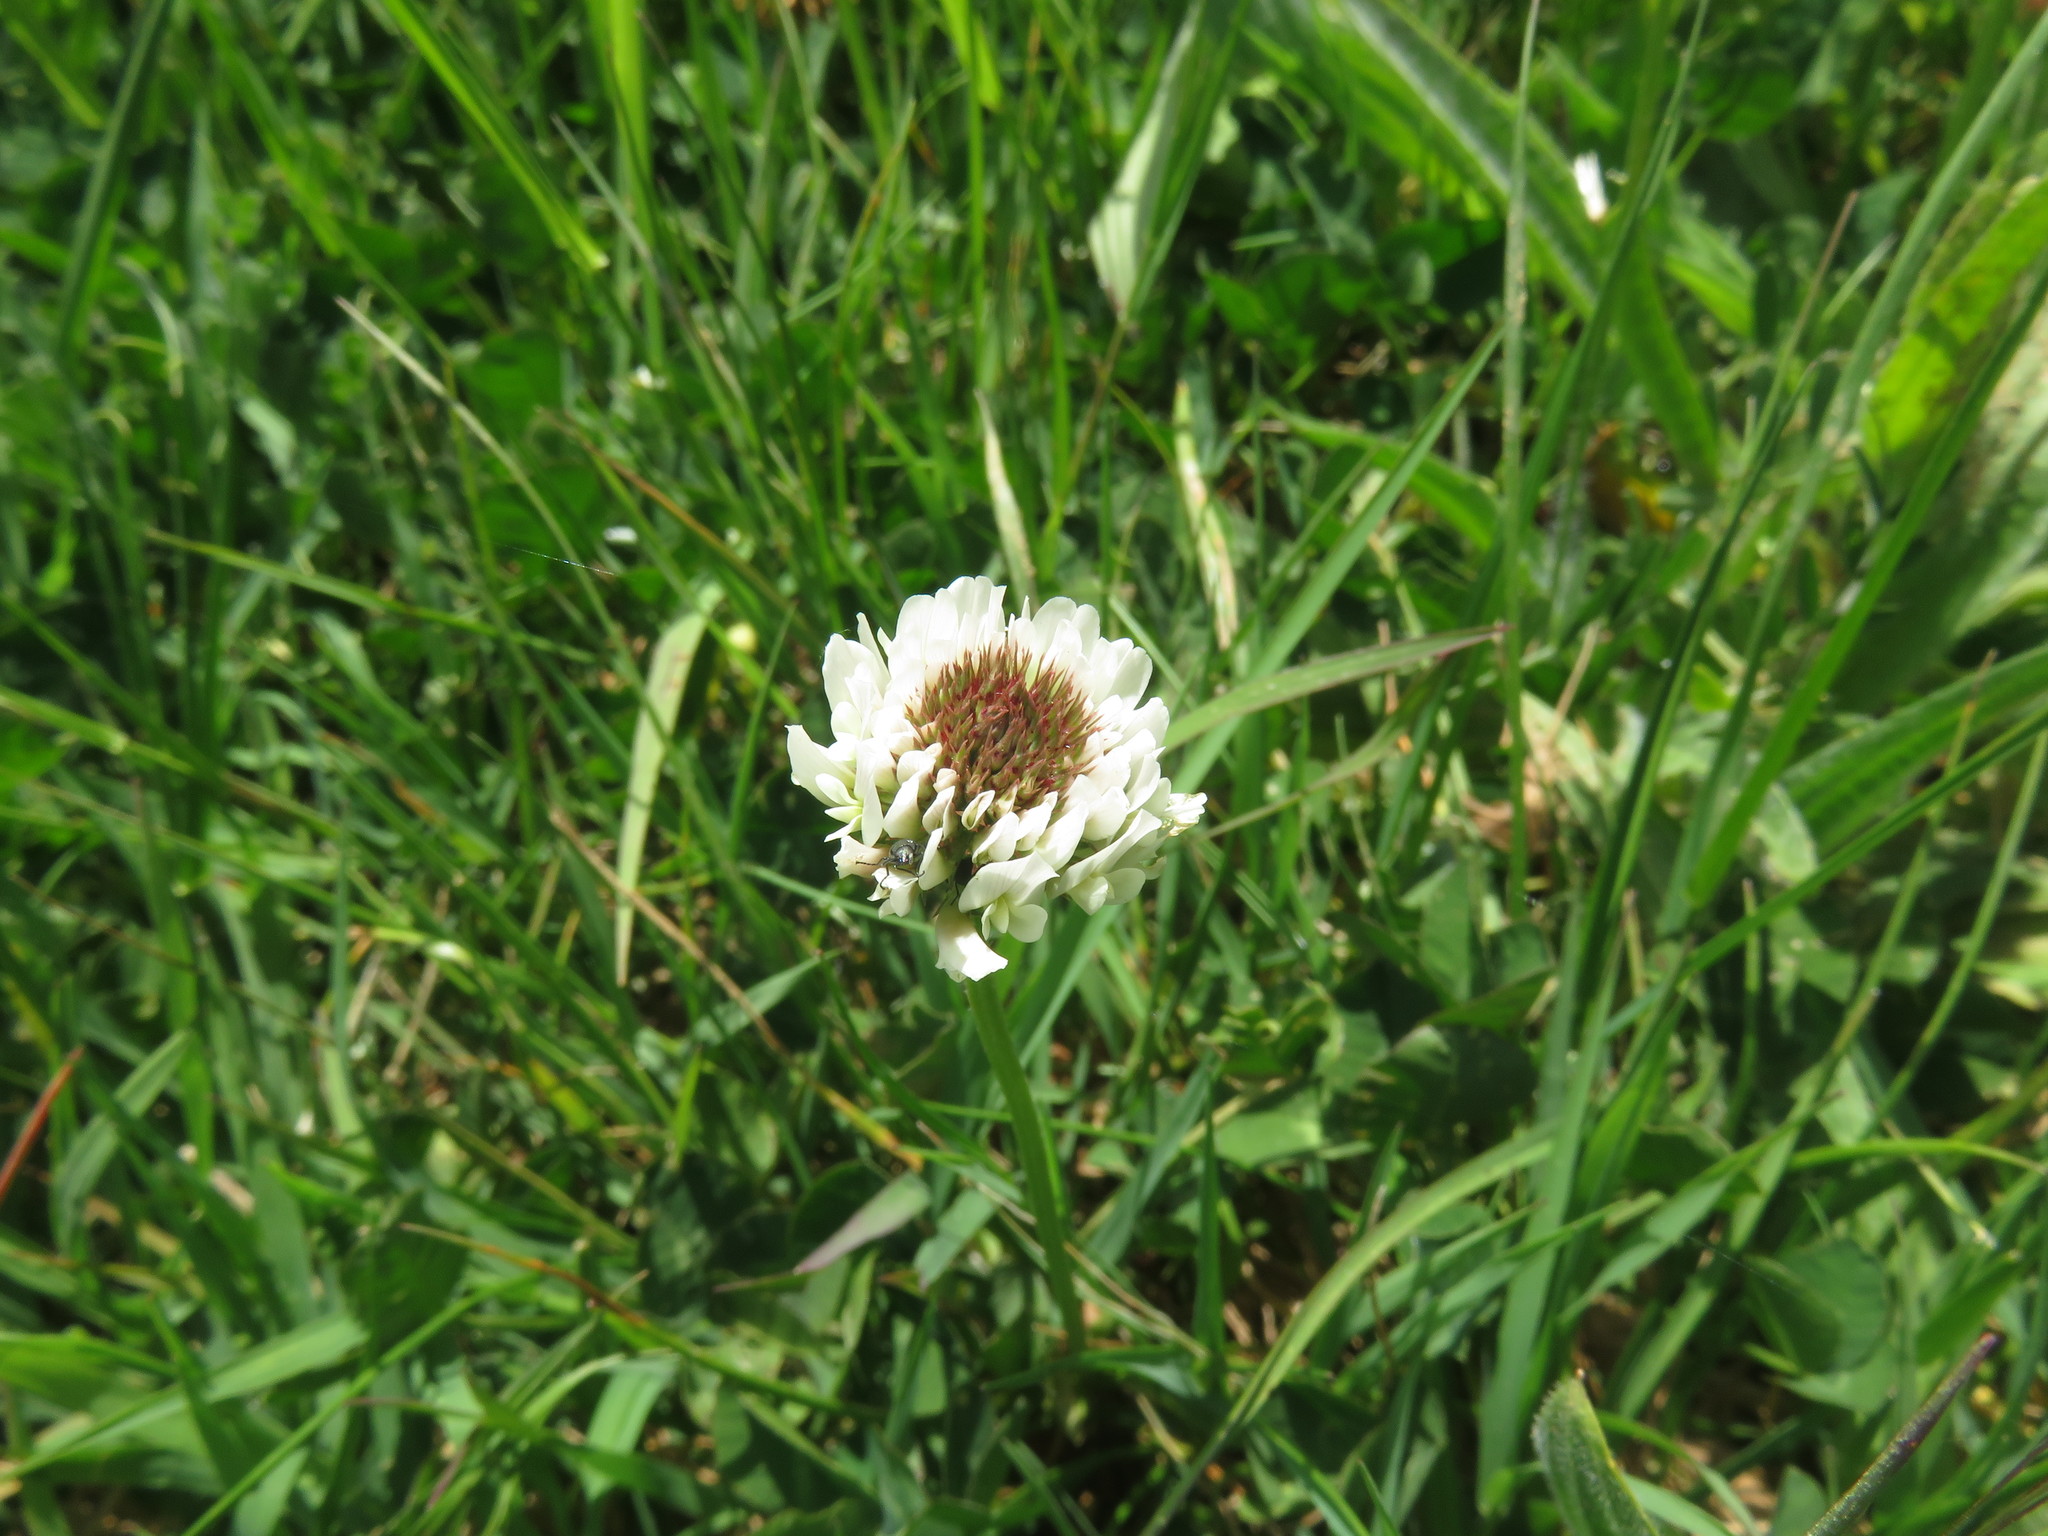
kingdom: Plantae
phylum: Tracheophyta
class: Magnoliopsida
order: Fabales
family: Fabaceae
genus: Trifolium
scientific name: Trifolium repens
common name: White clover
